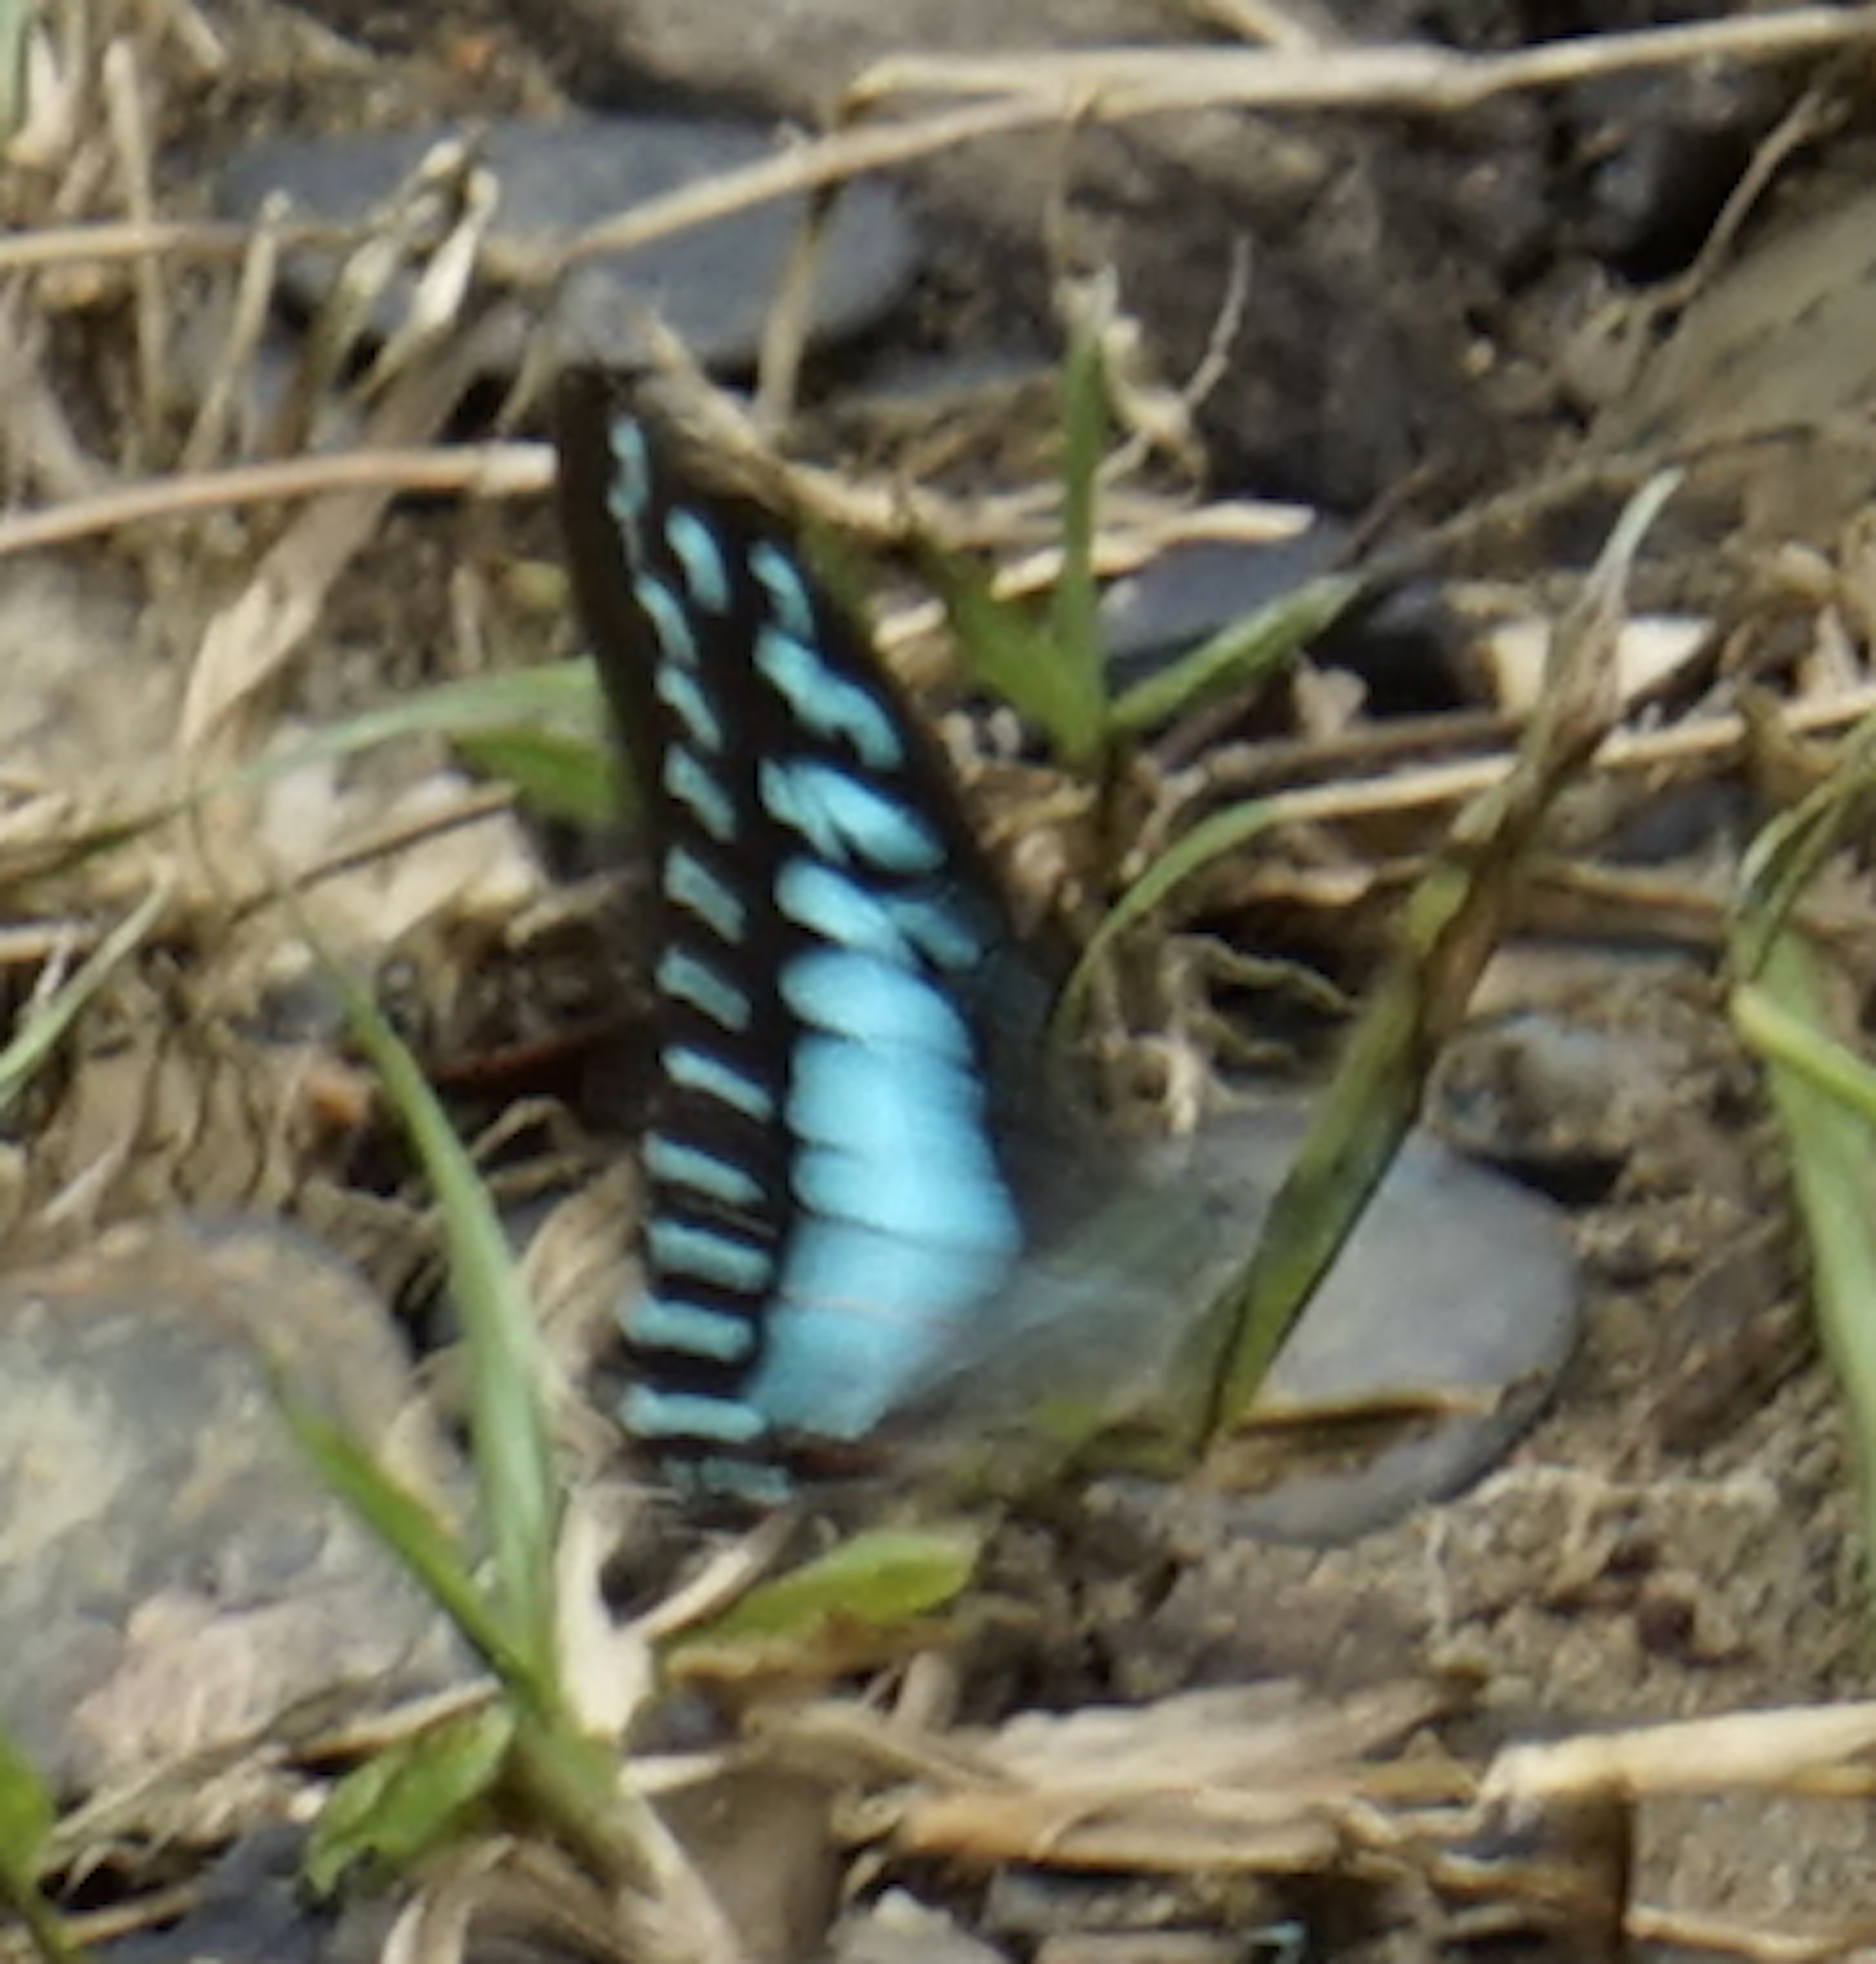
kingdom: Animalia
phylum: Arthropoda
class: Insecta
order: Lepidoptera
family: Papilionidae
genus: Graphium
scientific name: Graphium evemon
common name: Lesser jay
